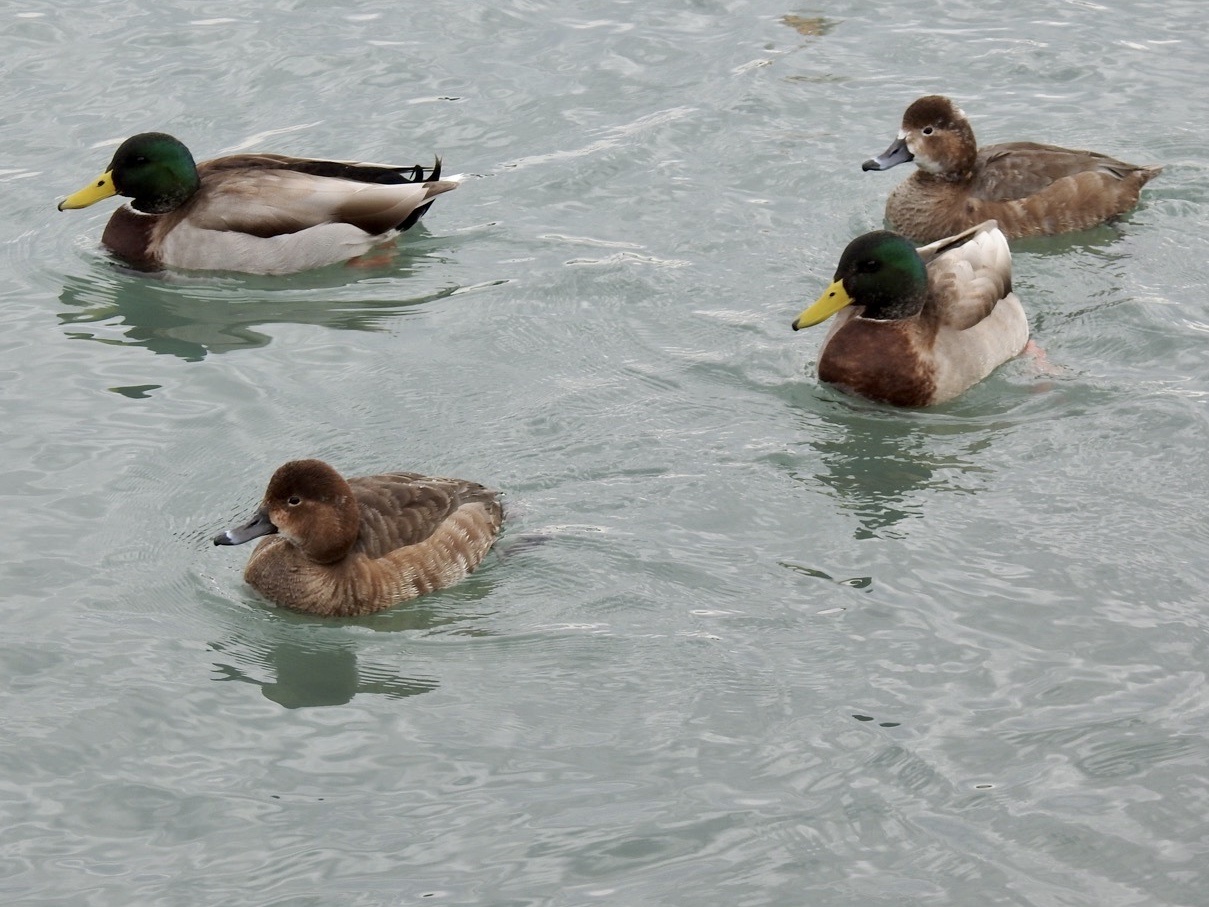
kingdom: Animalia
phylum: Chordata
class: Aves
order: Anseriformes
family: Anatidae
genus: Anas
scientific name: Anas platyrhynchos
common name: Mallard
